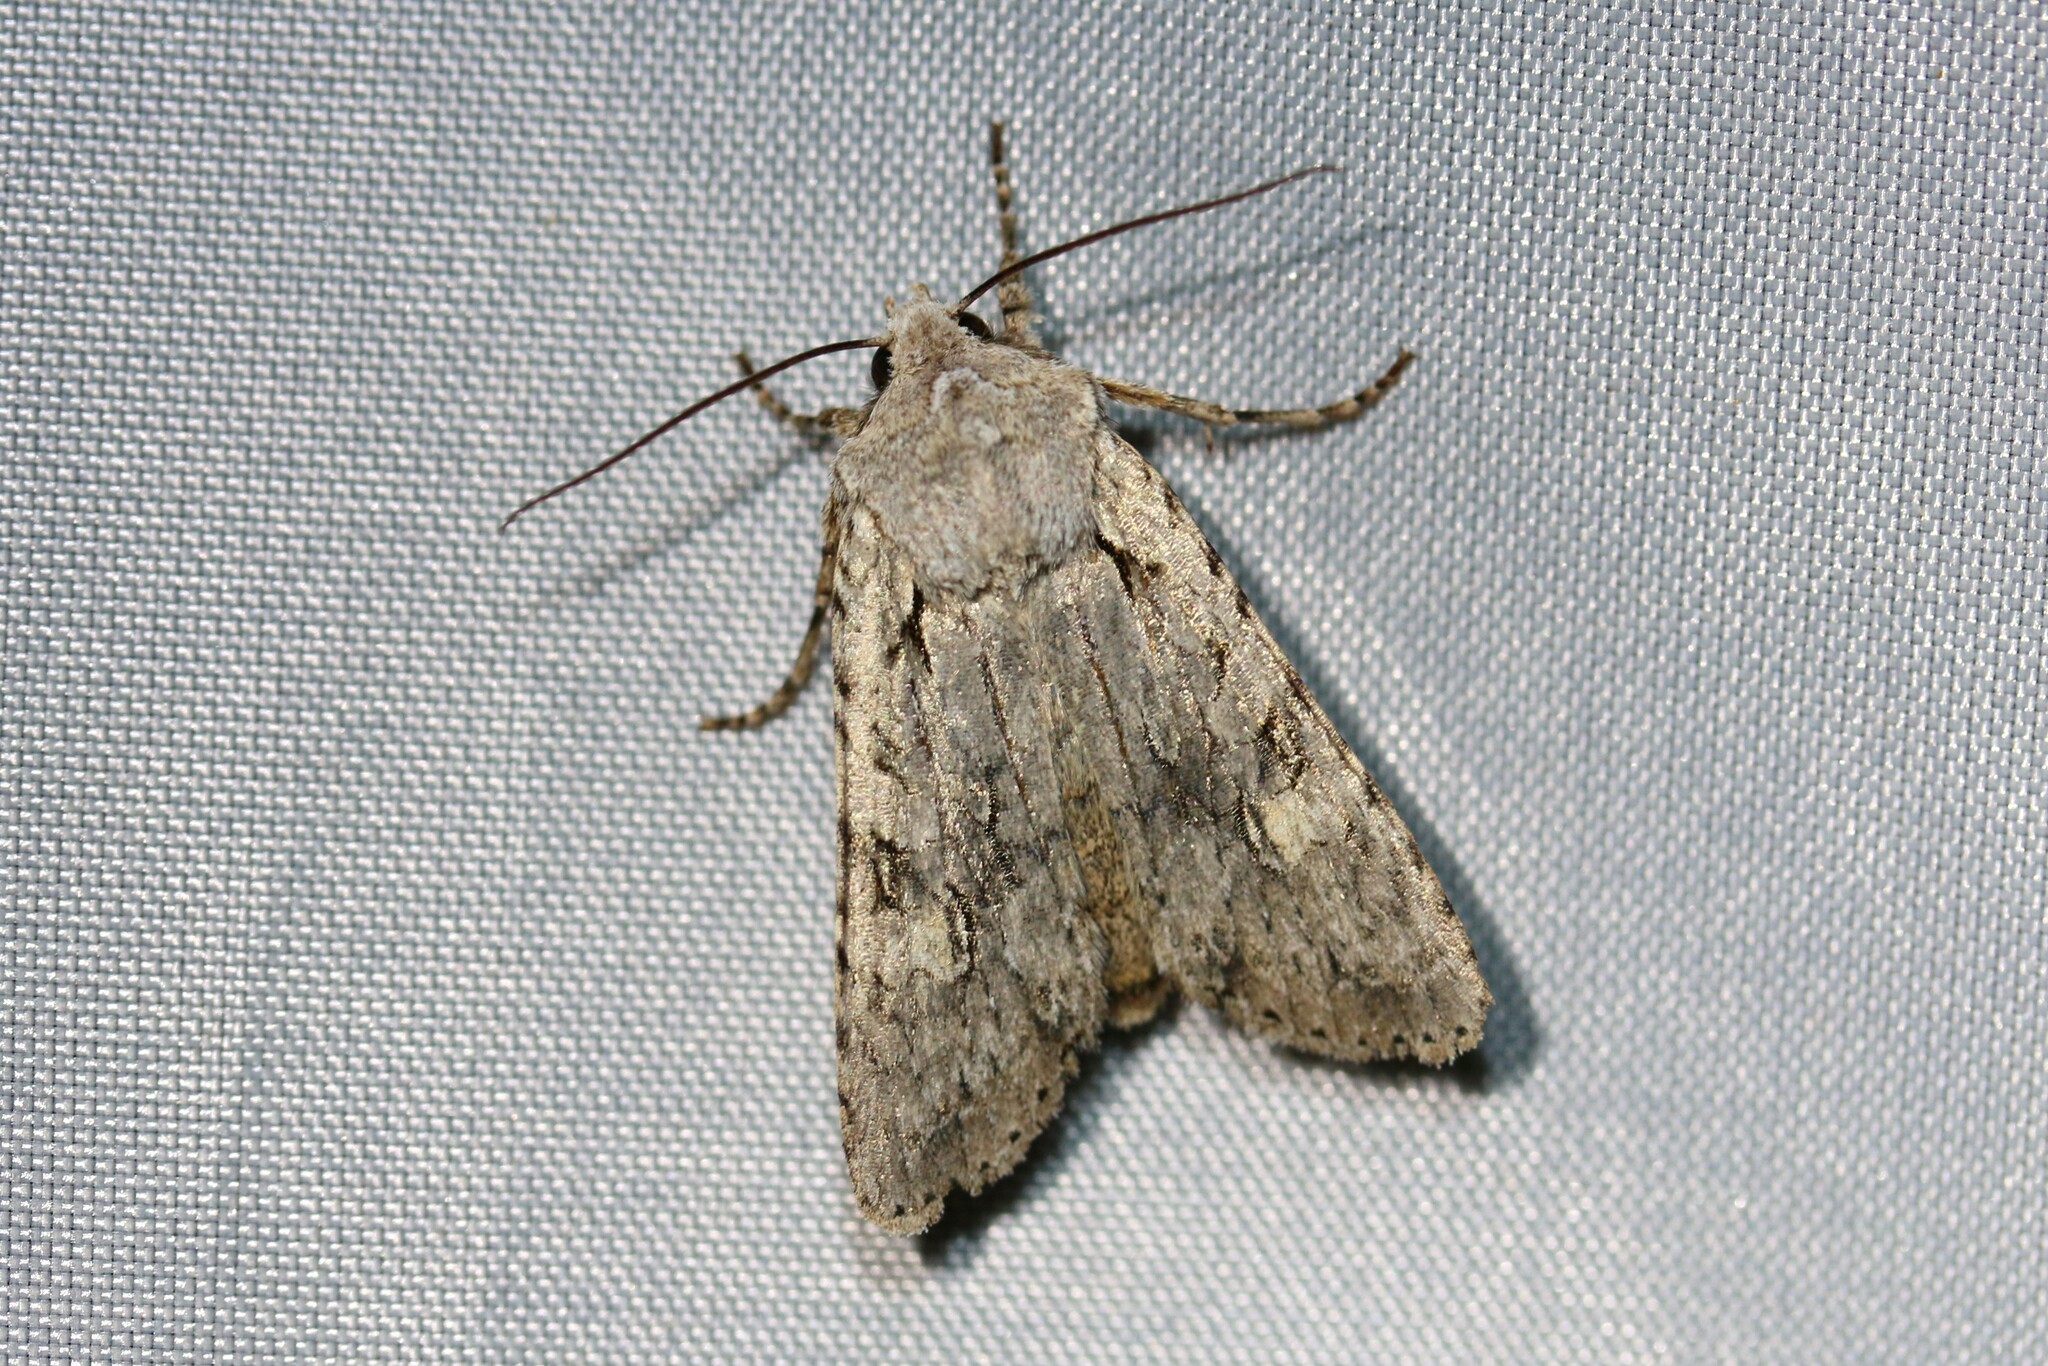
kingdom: Animalia
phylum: Arthropoda
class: Insecta
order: Lepidoptera
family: Noctuidae
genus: Lithophane
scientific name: Lithophane ornitopus
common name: Grey shoulder-knot
